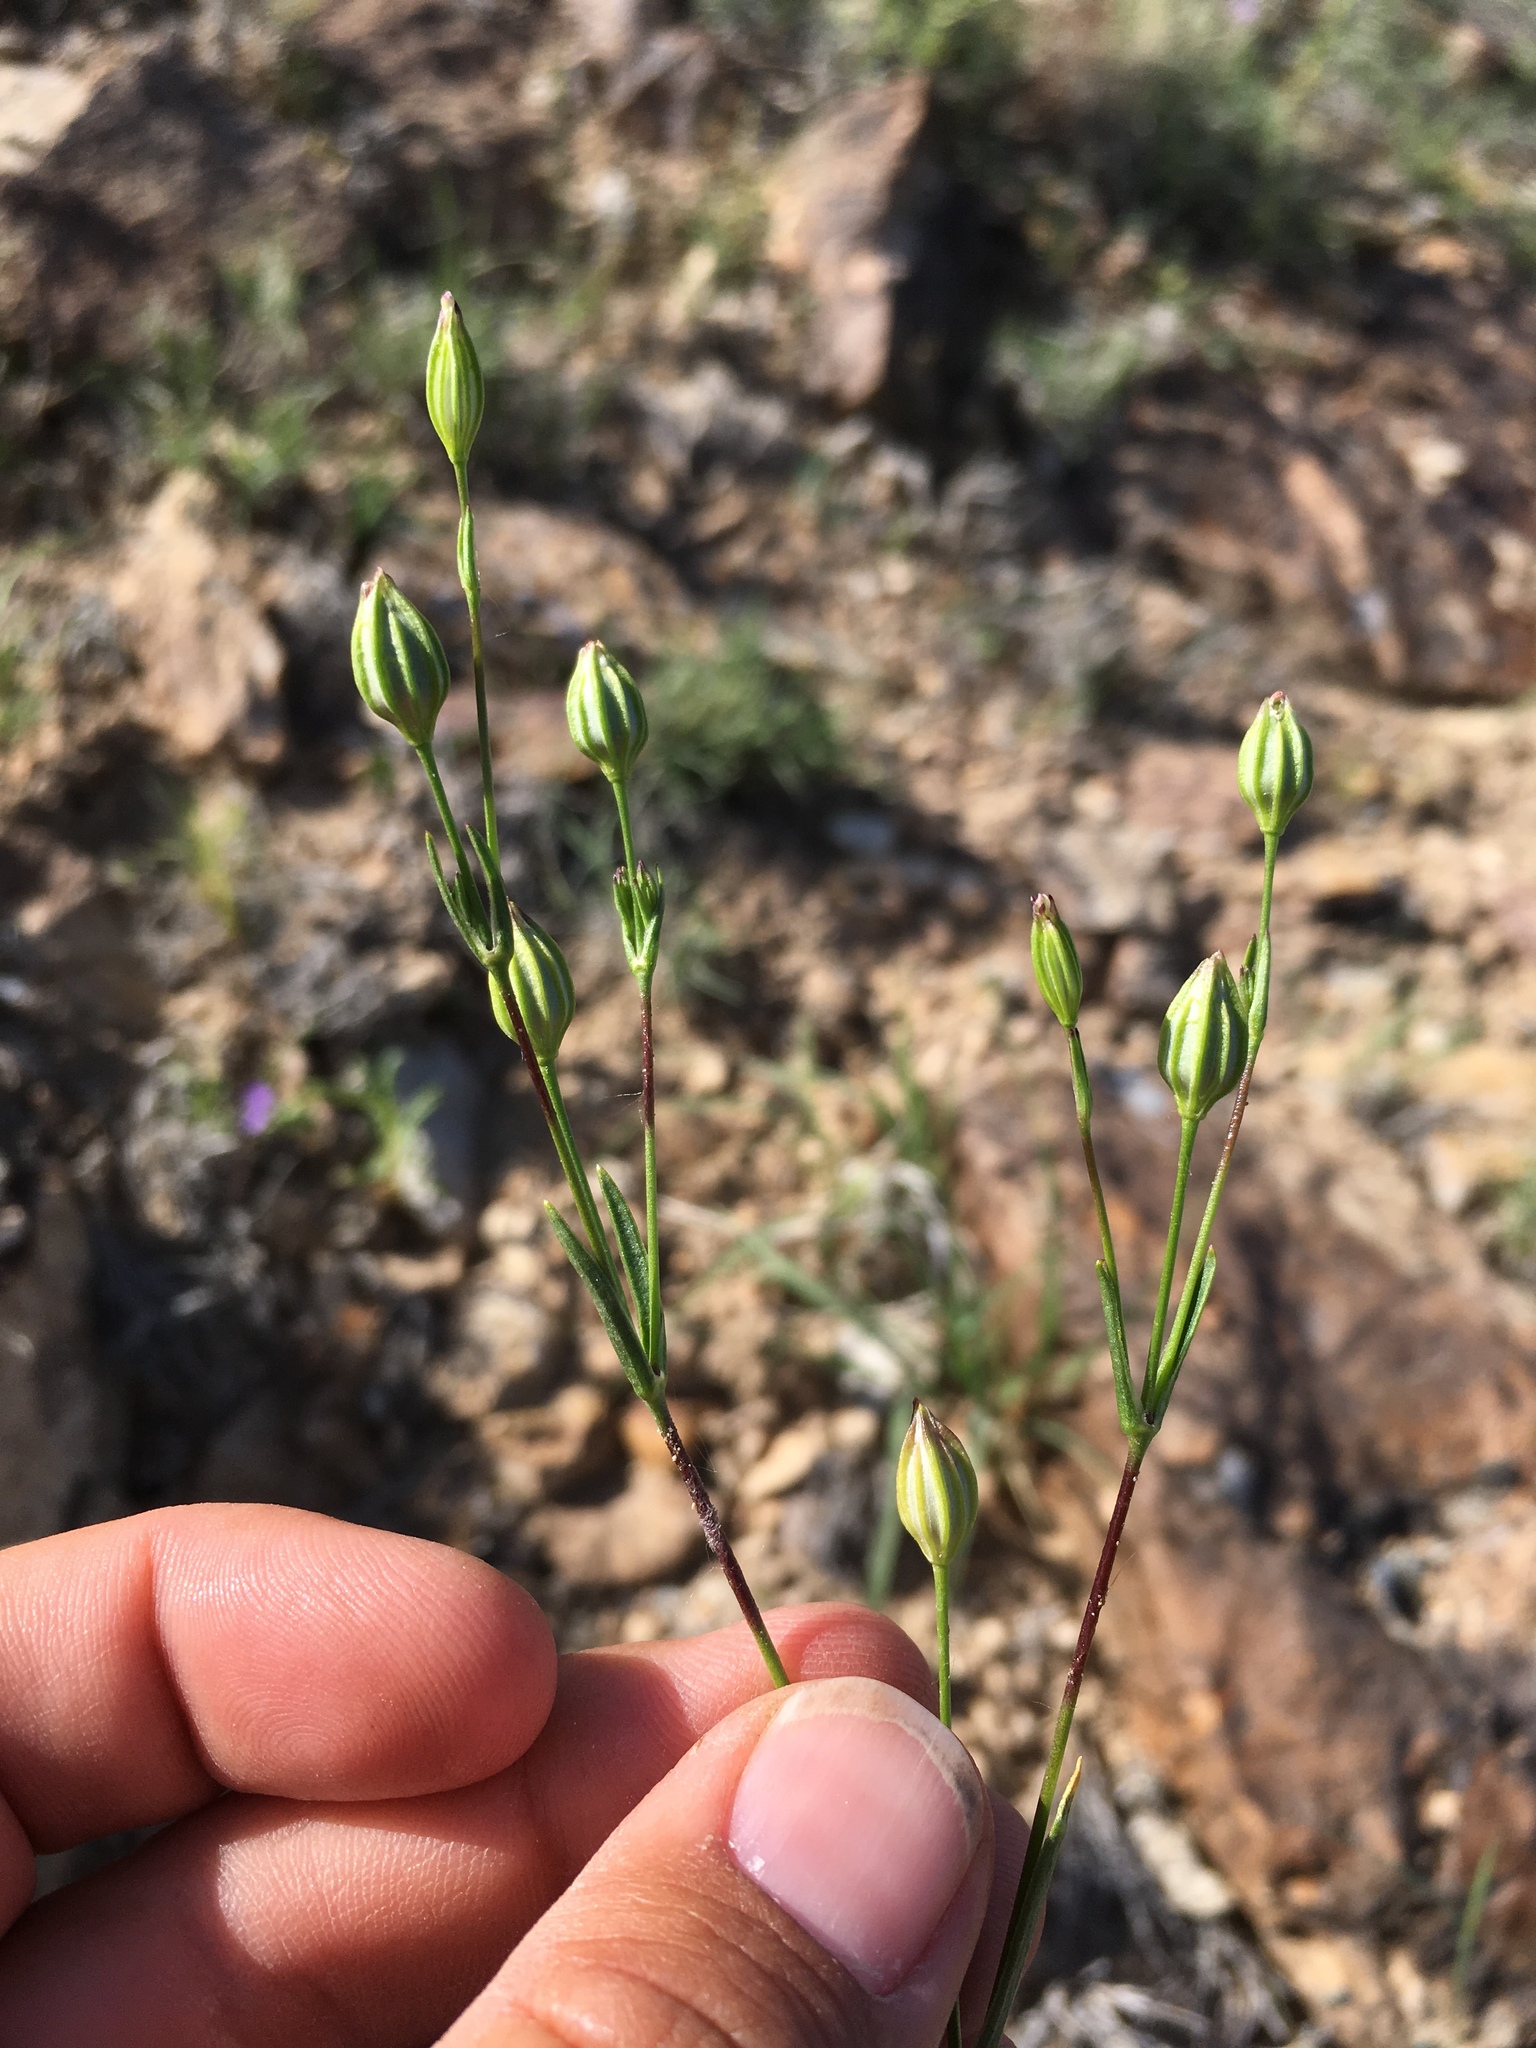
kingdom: Plantae
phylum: Tracheophyta
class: Magnoliopsida
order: Caryophyllales
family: Caryophyllaceae
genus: Silene
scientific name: Silene antirrhina
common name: Sleepy catchfly
